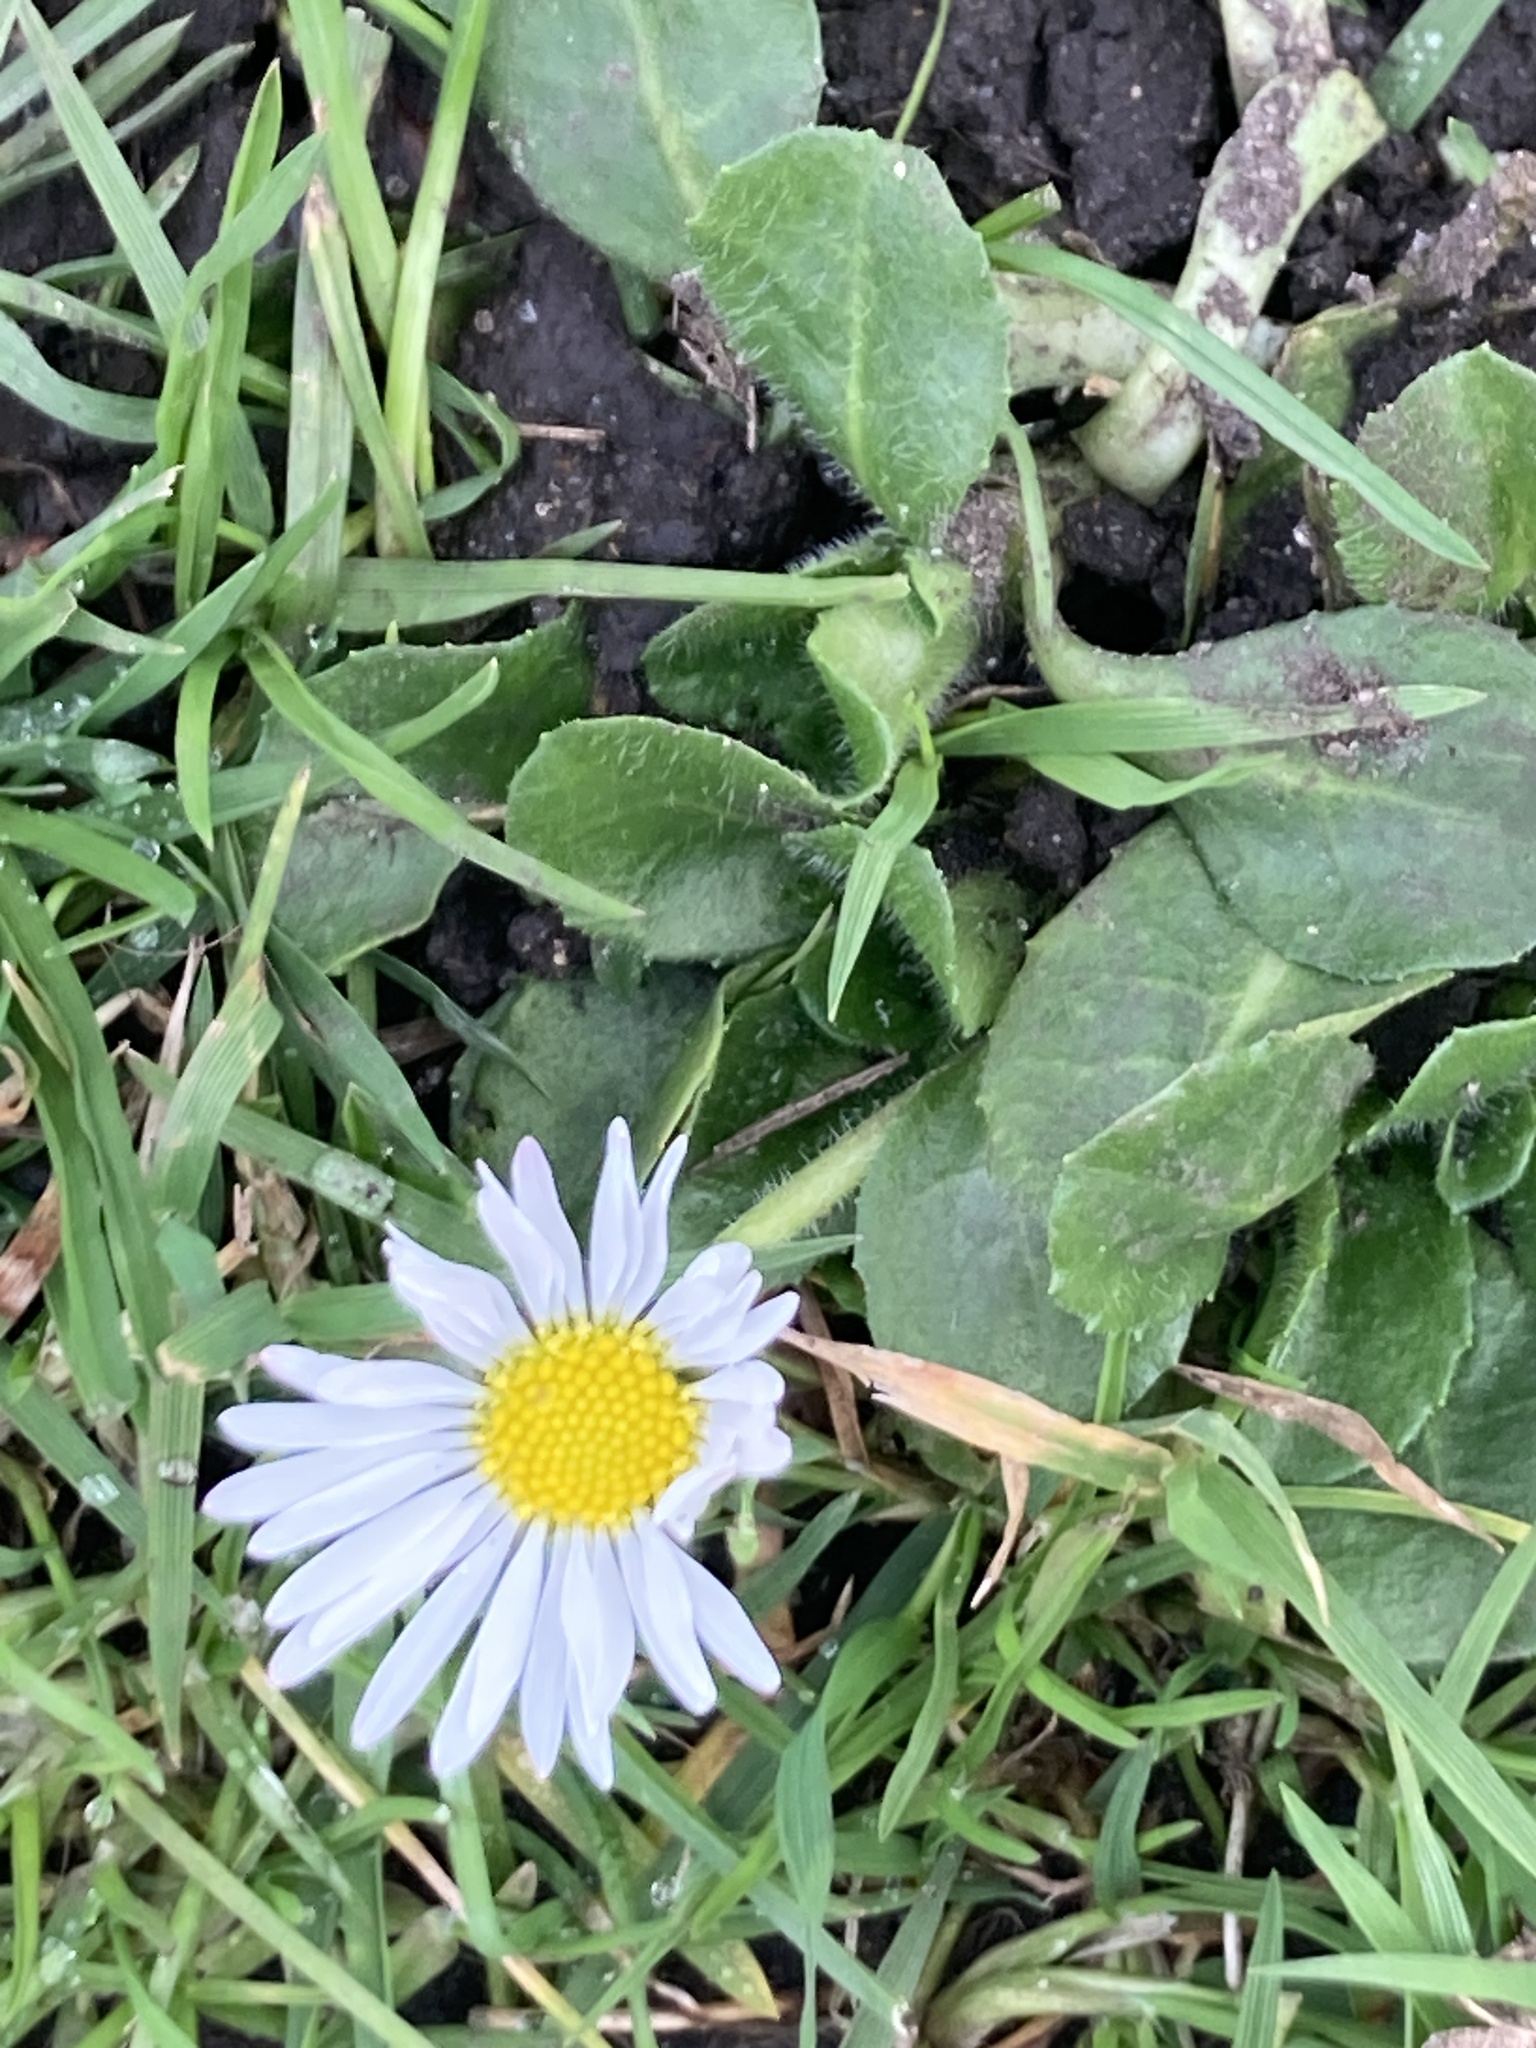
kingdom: Plantae
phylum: Tracheophyta
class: Magnoliopsida
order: Asterales
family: Asteraceae
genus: Bellis
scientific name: Bellis perennis
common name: Lawndaisy
